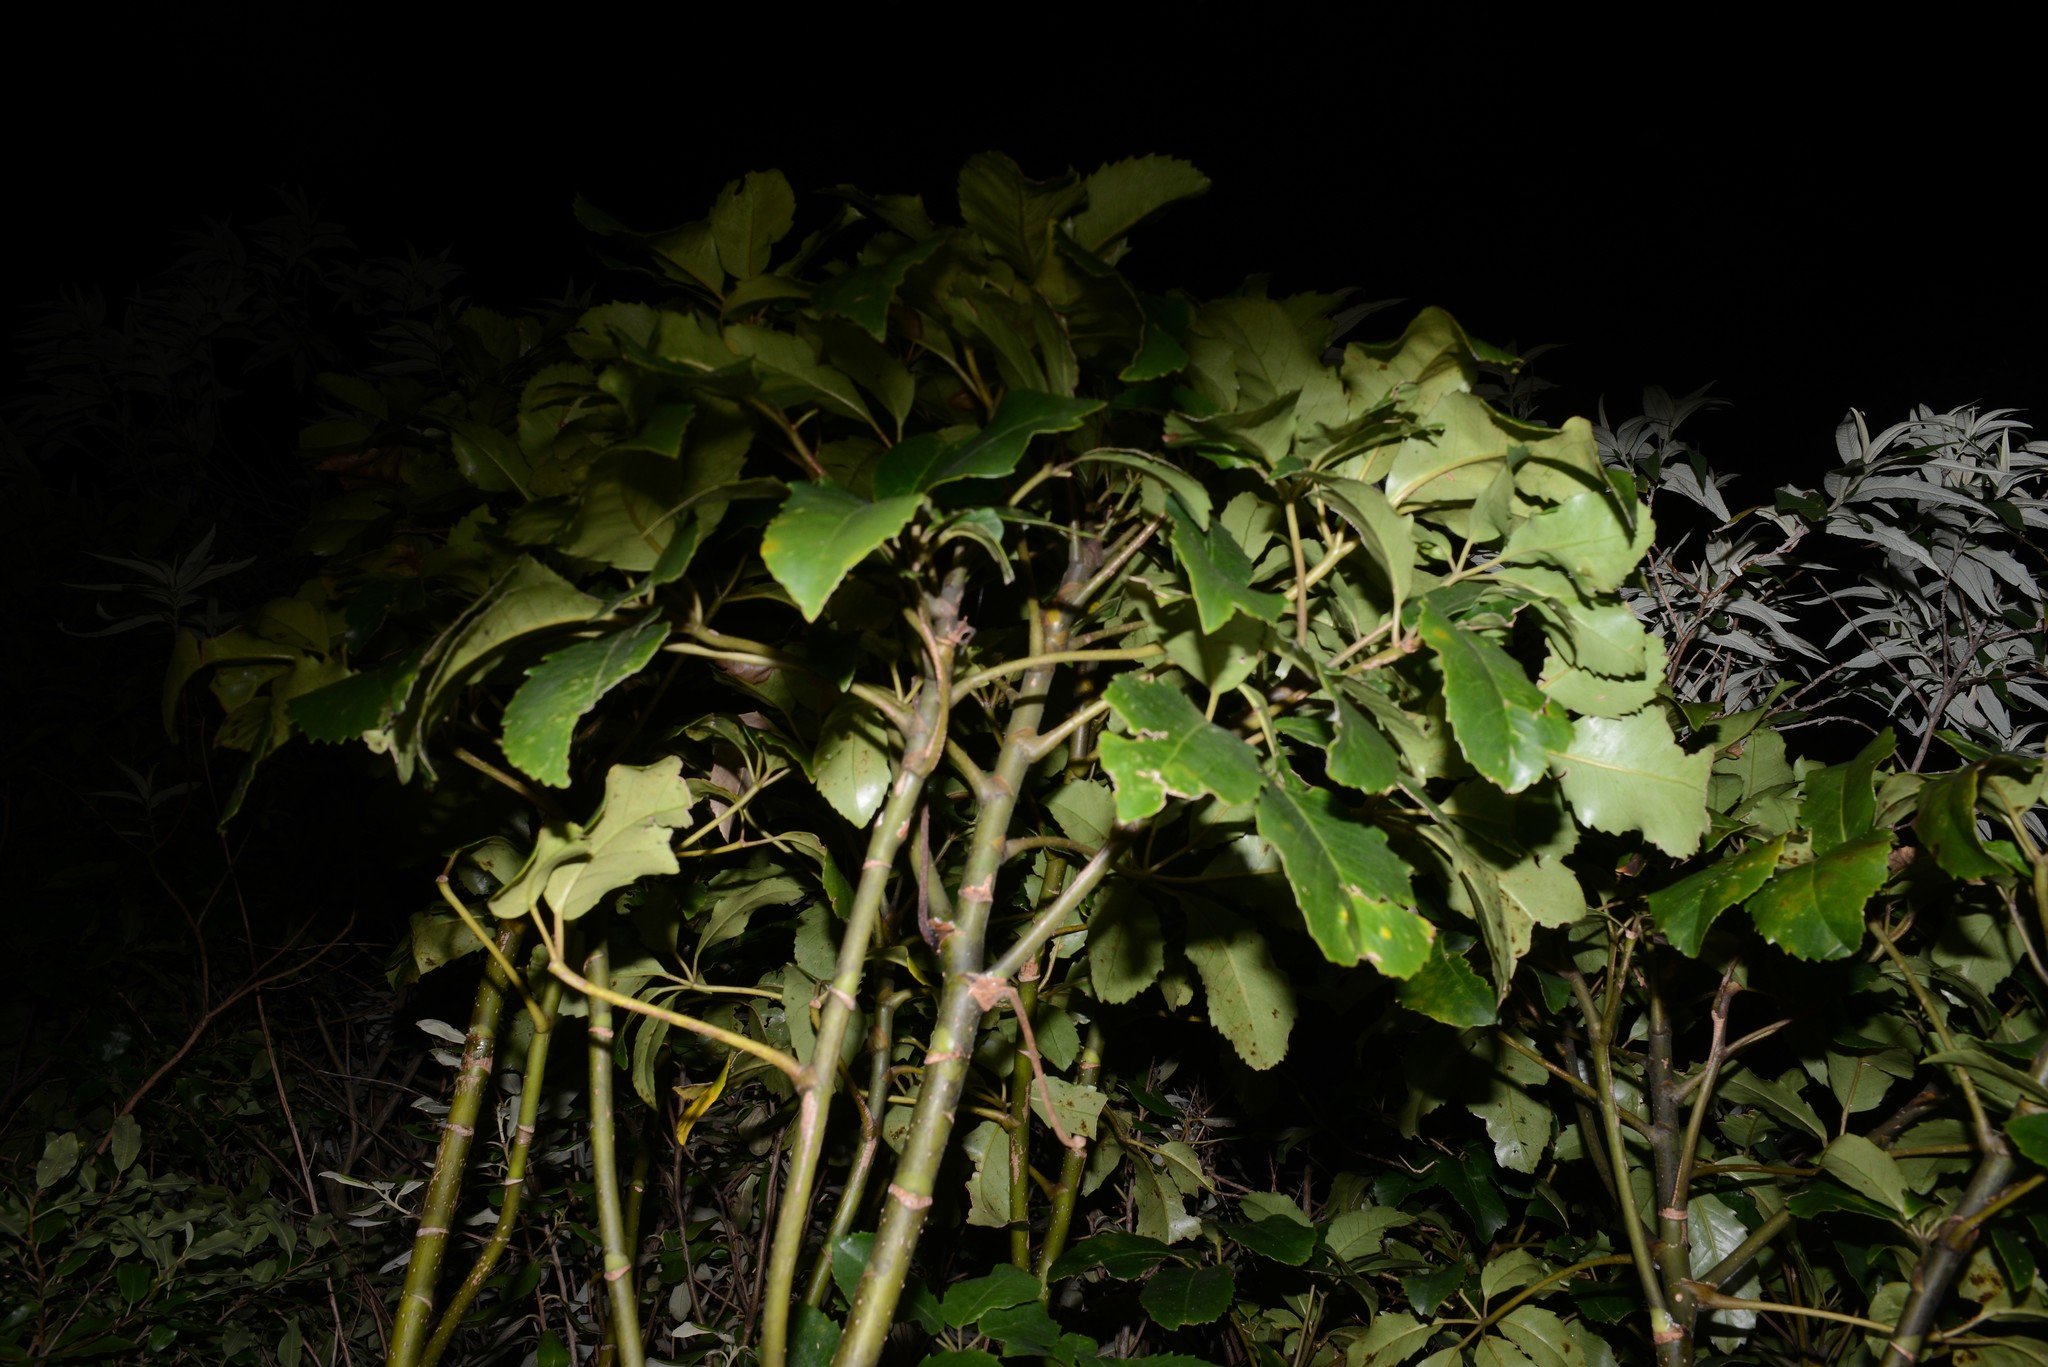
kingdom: Plantae
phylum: Tracheophyta
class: Magnoliopsida
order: Apiales
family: Araliaceae
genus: Neopanax
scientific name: Neopanax arboreus
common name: Five-fingers
